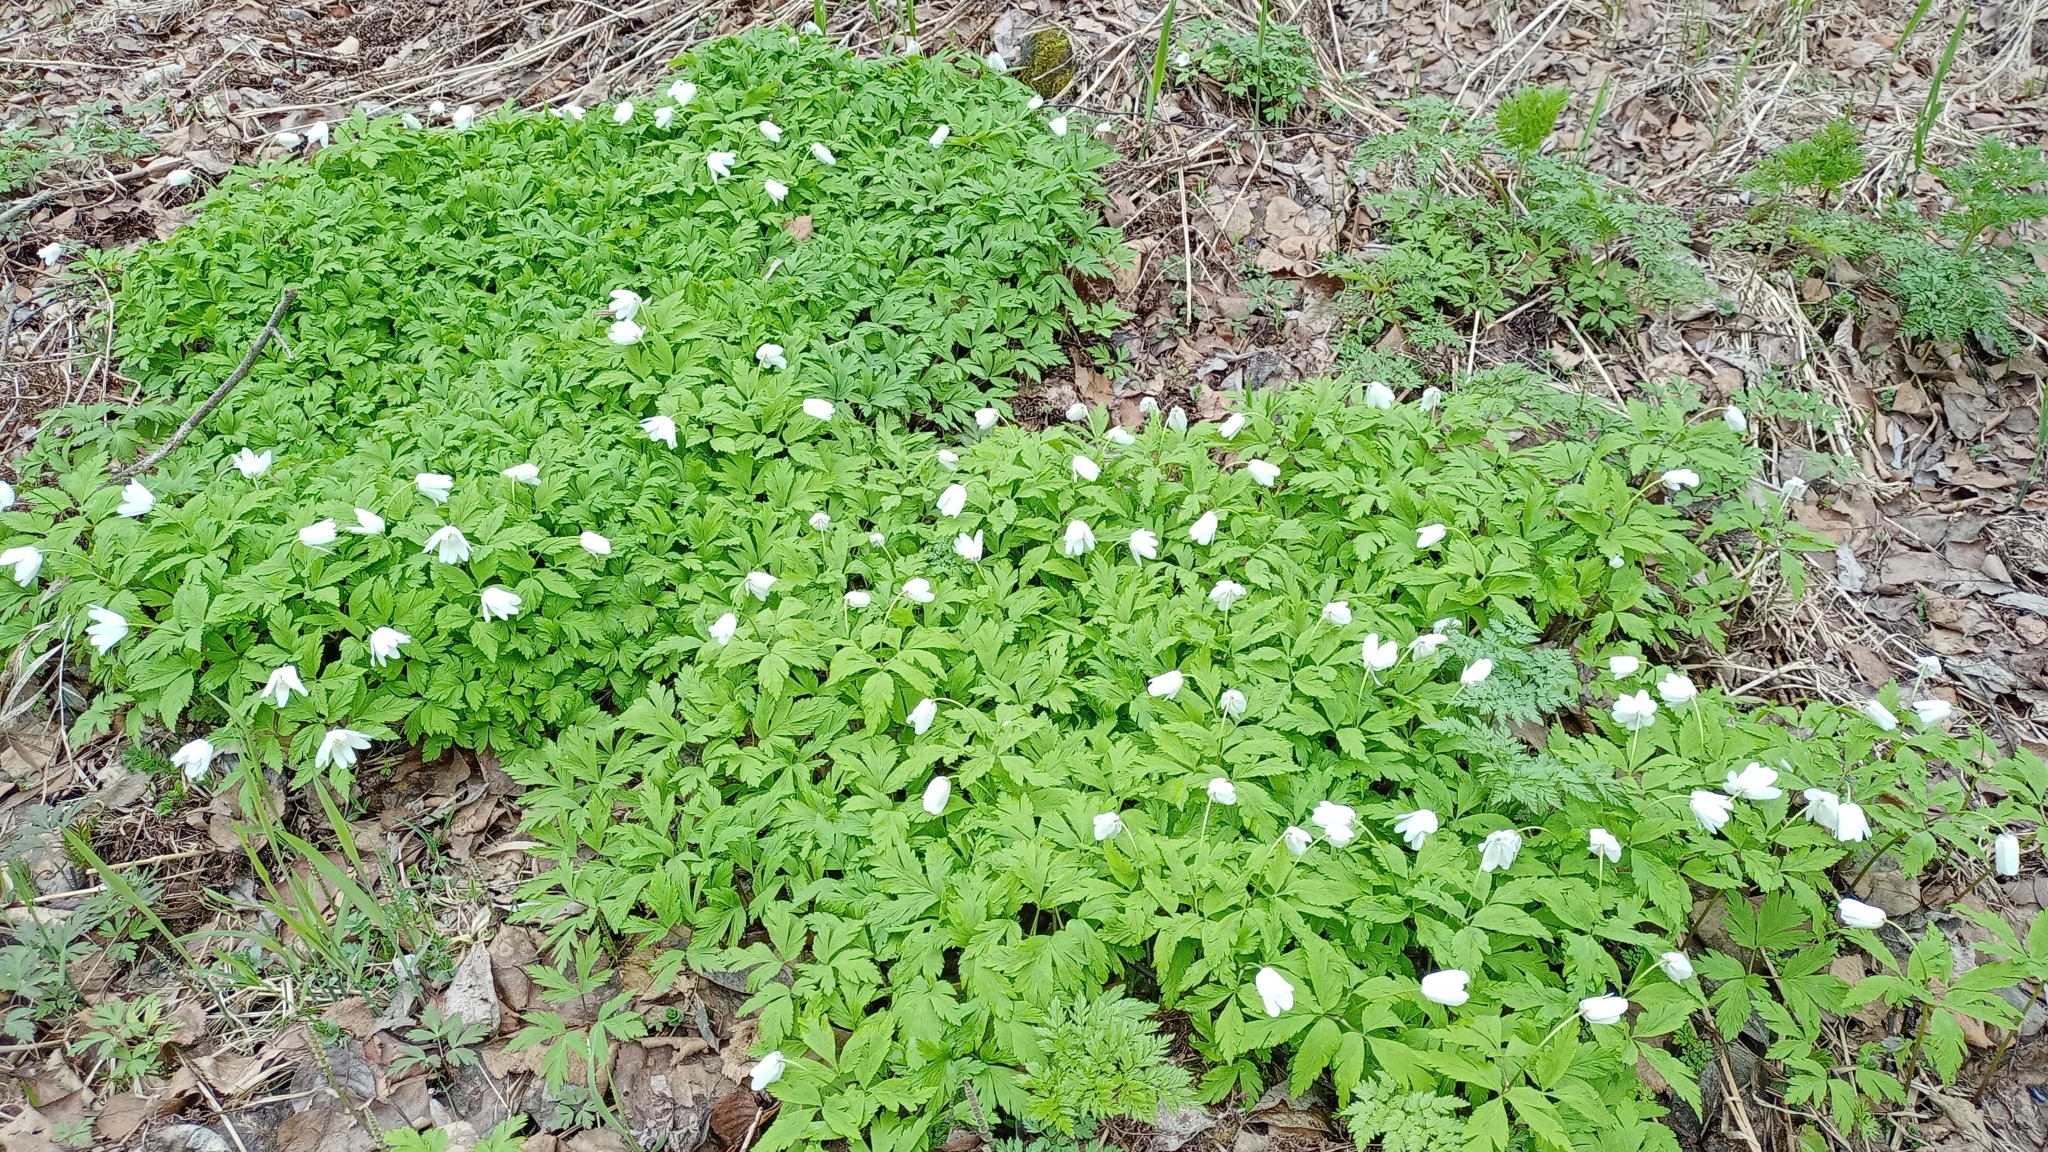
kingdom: Plantae
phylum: Tracheophyta
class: Magnoliopsida
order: Ranunculales
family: Ranunculaceae
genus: Anemone
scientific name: Anemone altaica
